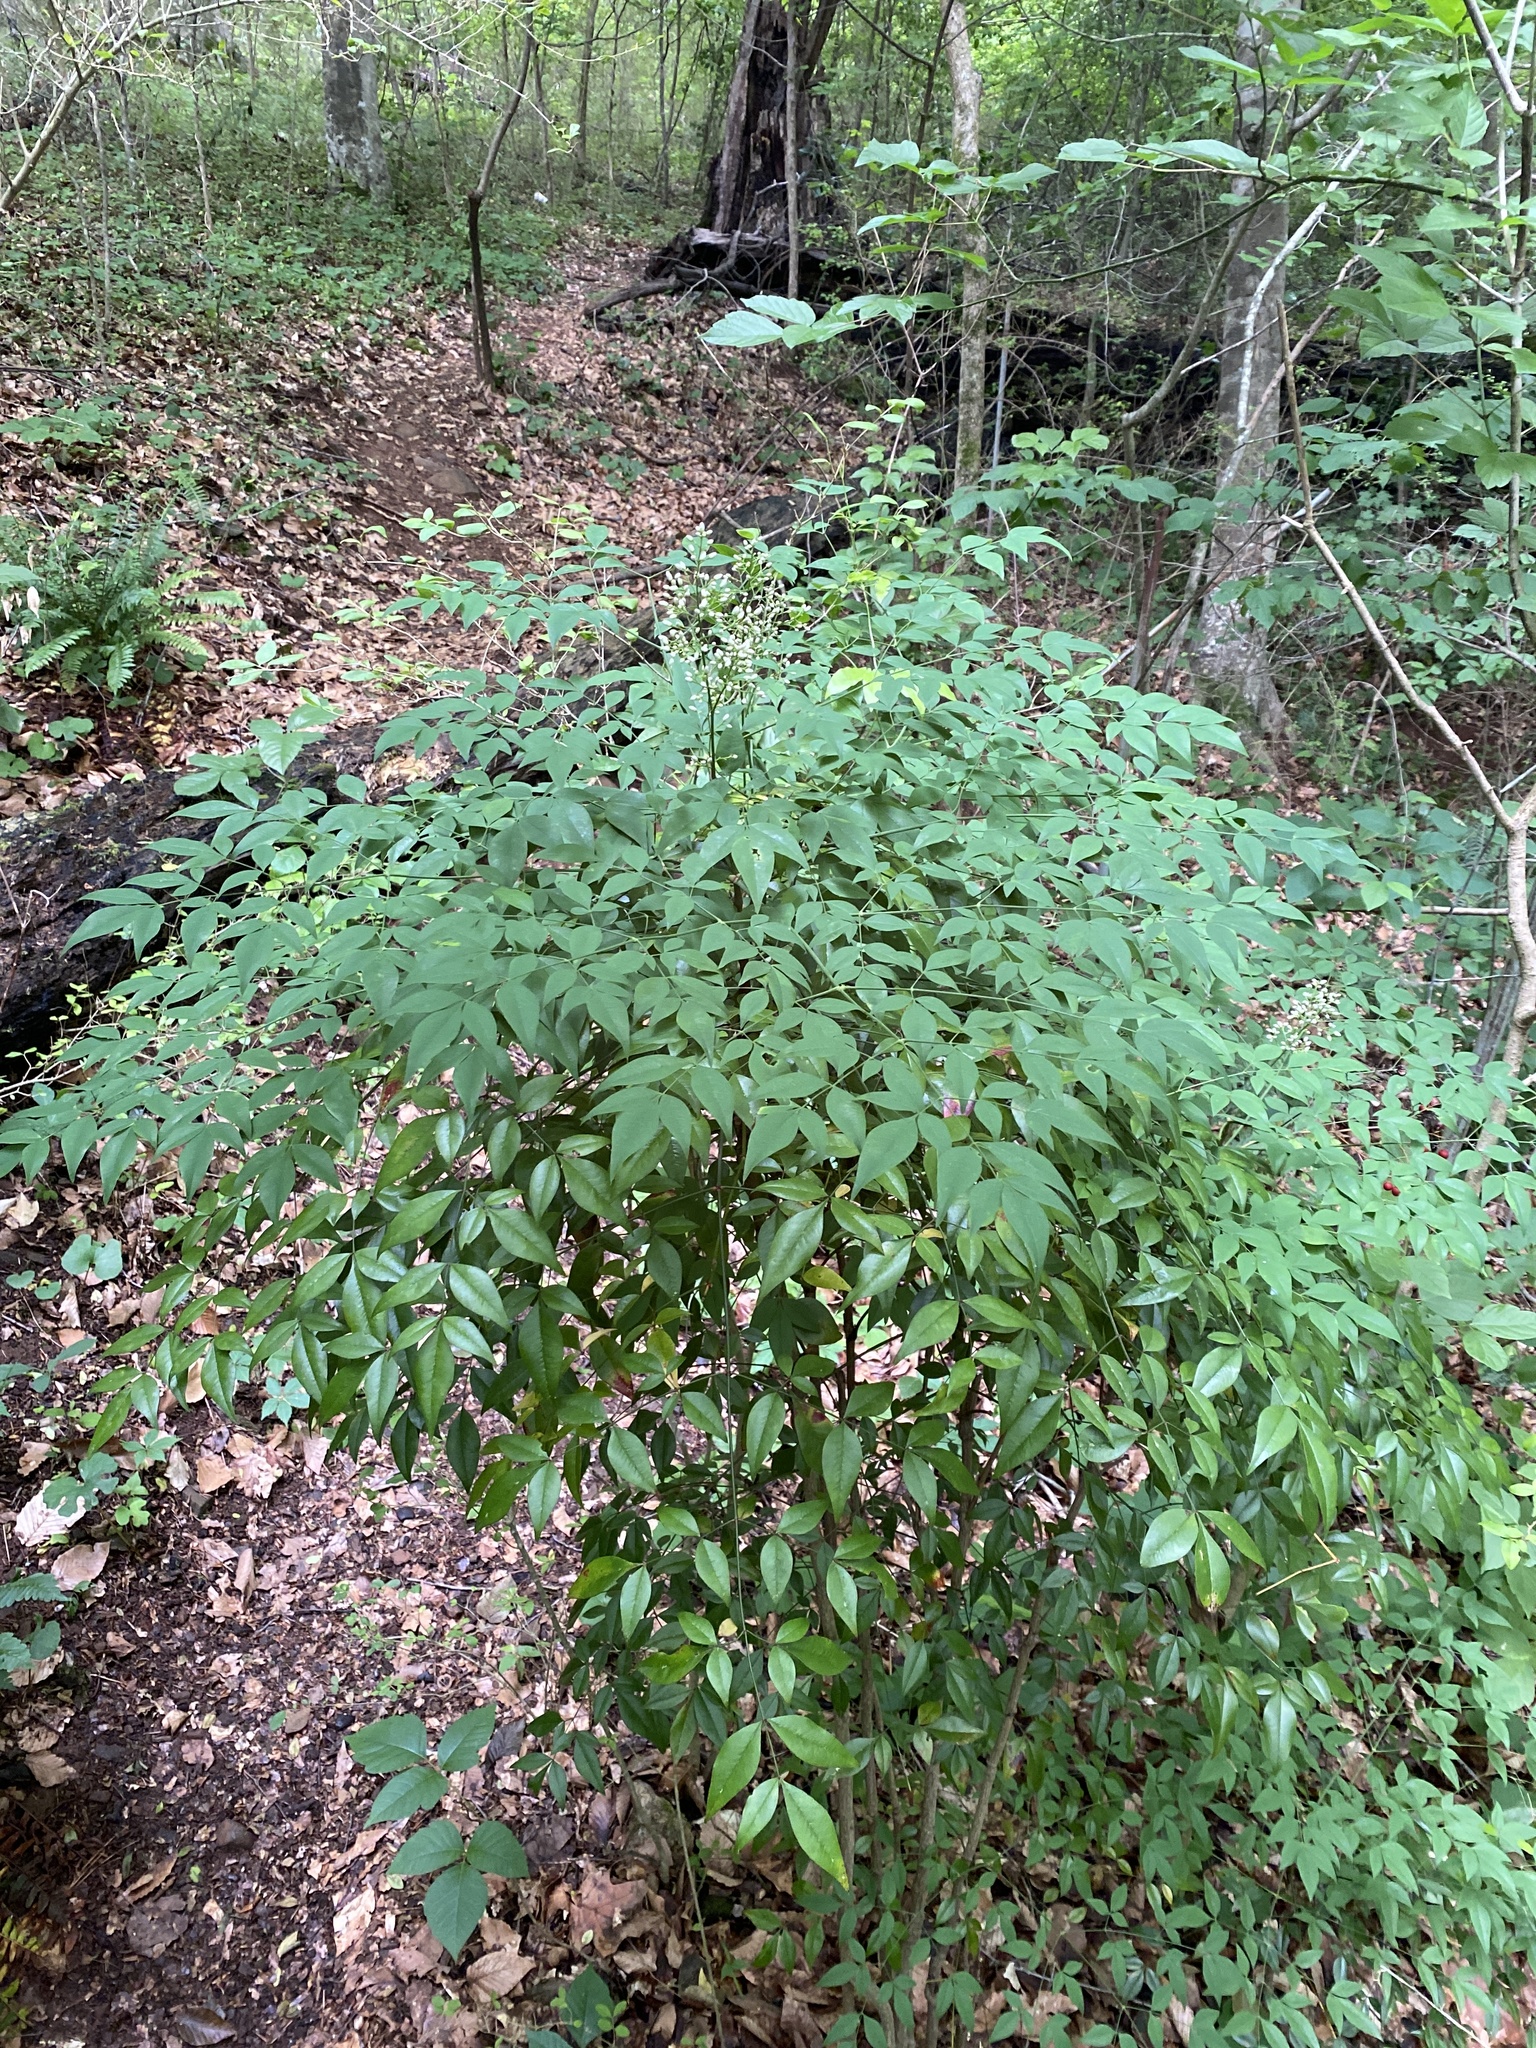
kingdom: Plantae
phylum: Tracheophyta
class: Magnoliopsida
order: Ranunculales
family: Berberidaceae
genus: Nandina
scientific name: Nandina domestica
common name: Sacred bamboo
